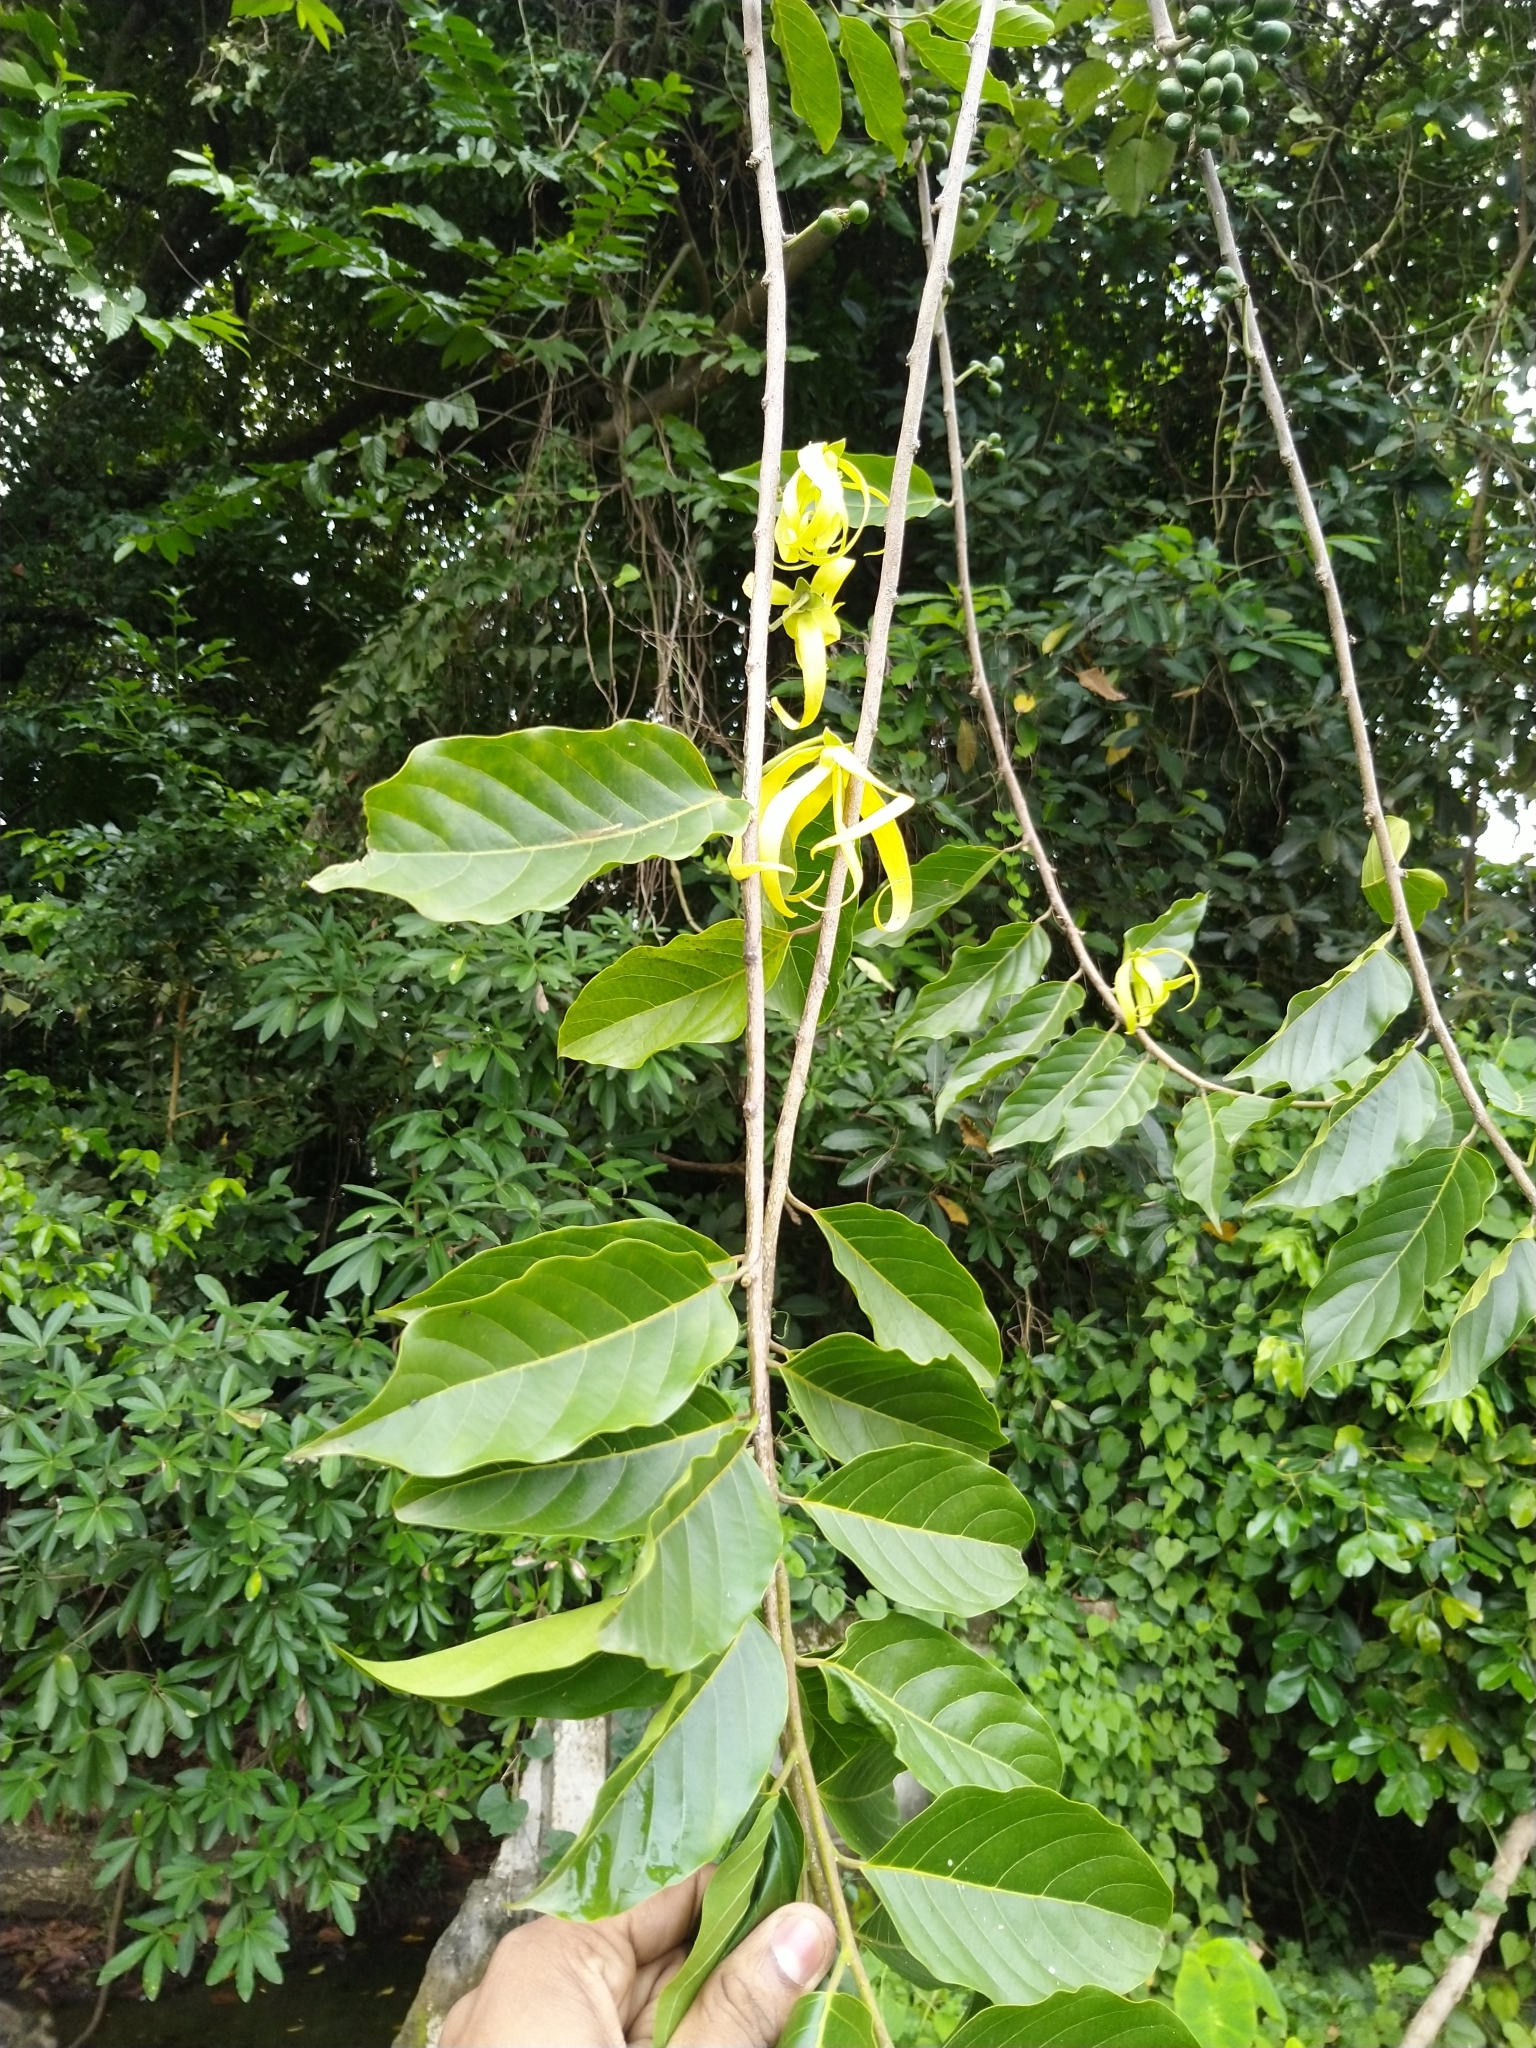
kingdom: Plantae
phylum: Tracheophyta
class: Magnoliopsida
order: Magnoliales
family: Annonaceae
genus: Cananga
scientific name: Cananga odorata
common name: Cananga tree
